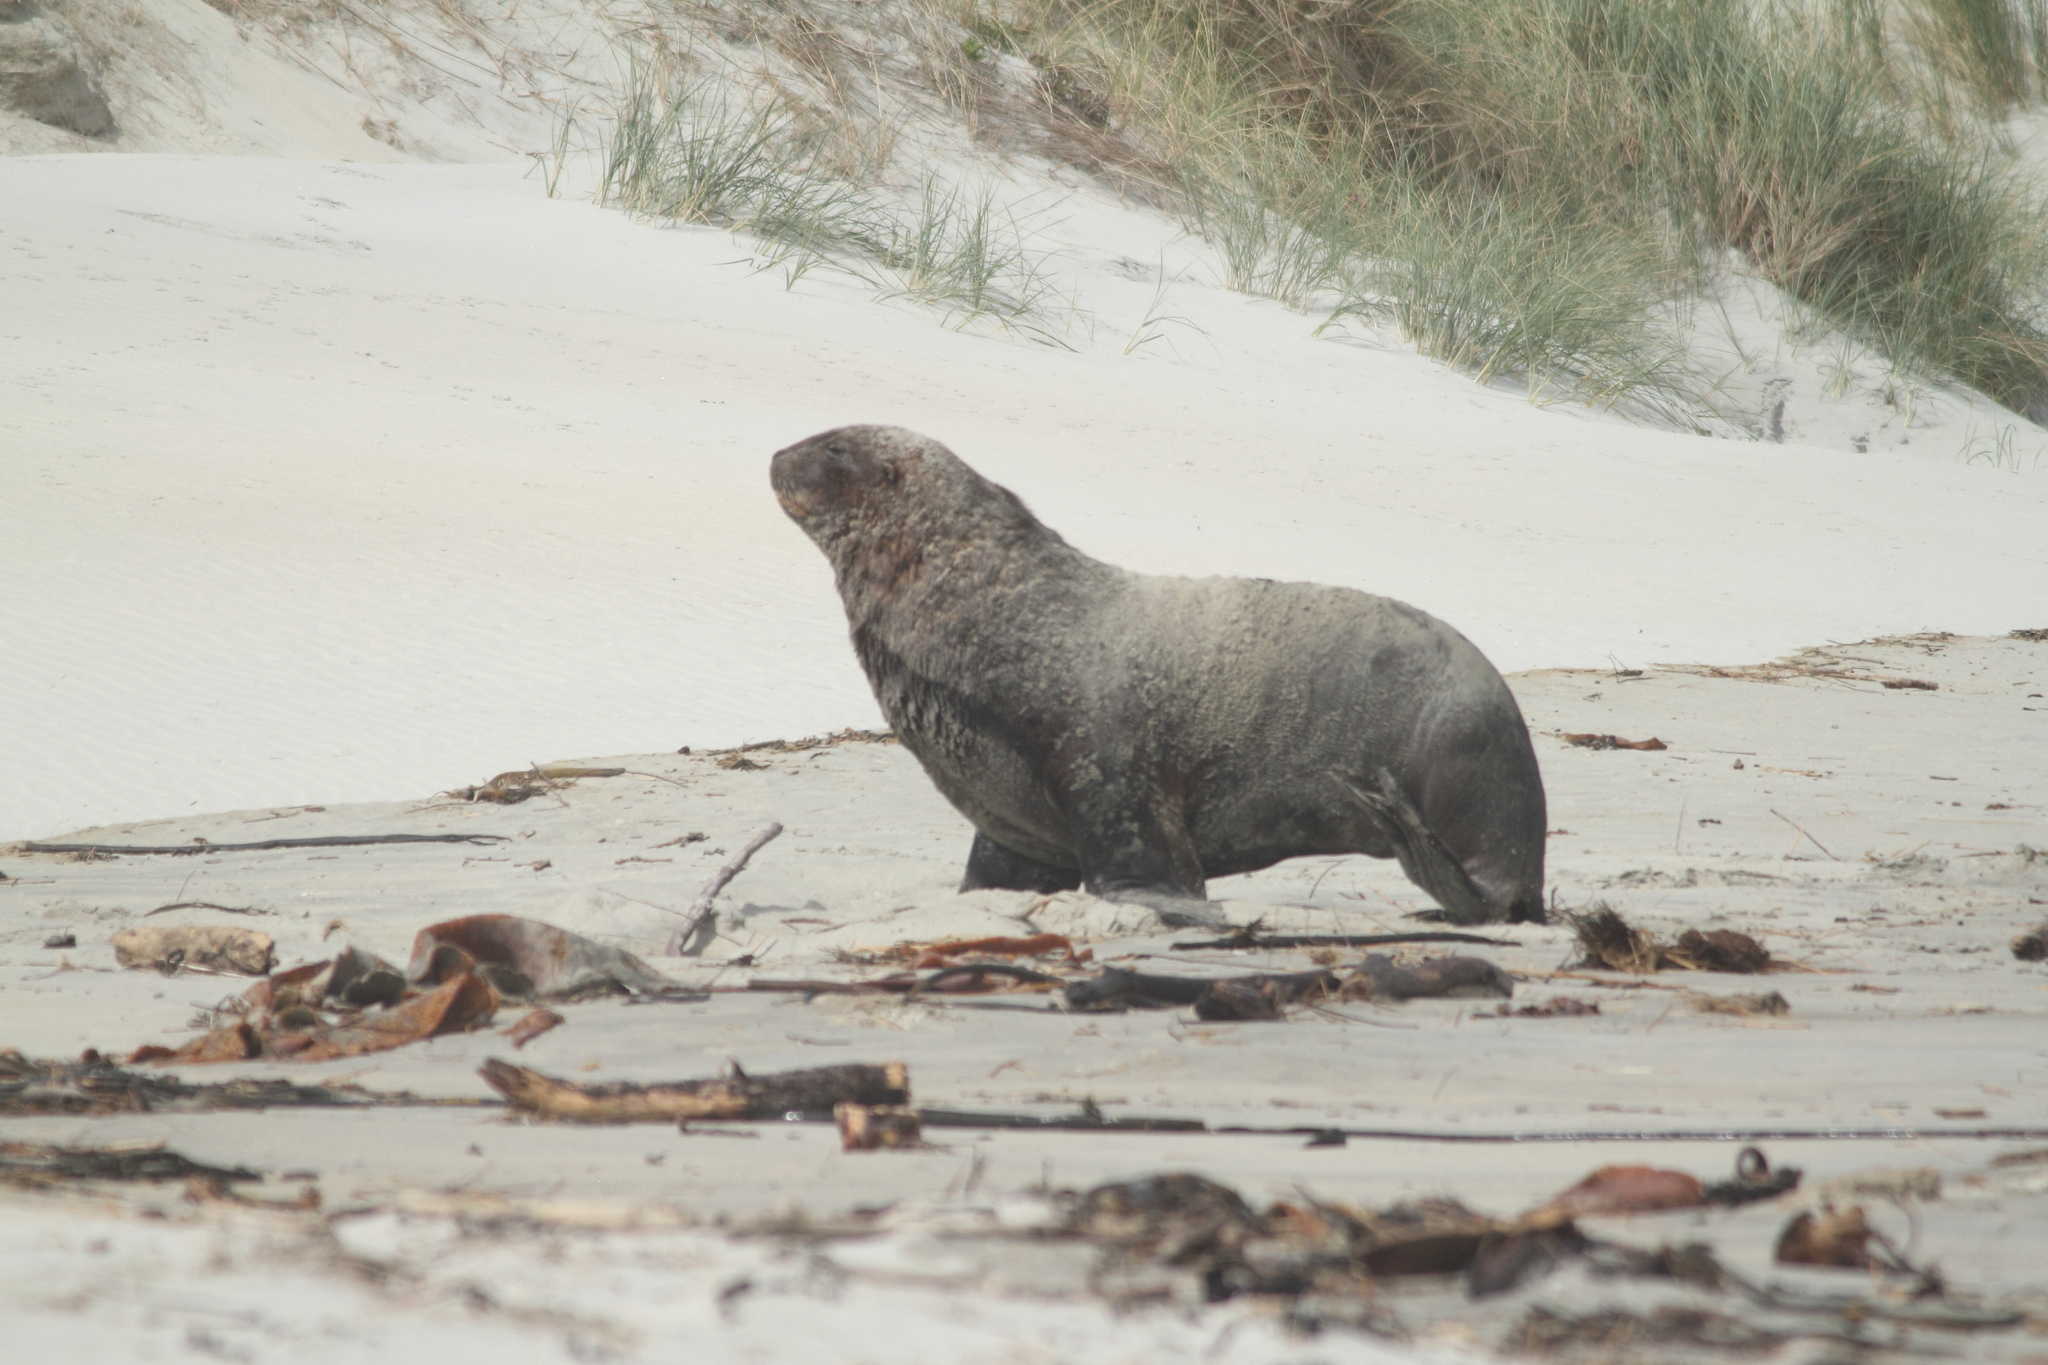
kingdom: Animalia
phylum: Chordata
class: Mammalia
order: Carnivora
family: Otariidae
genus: Phocarctos
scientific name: Phocarctos hookeri
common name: New zealand sea lion
